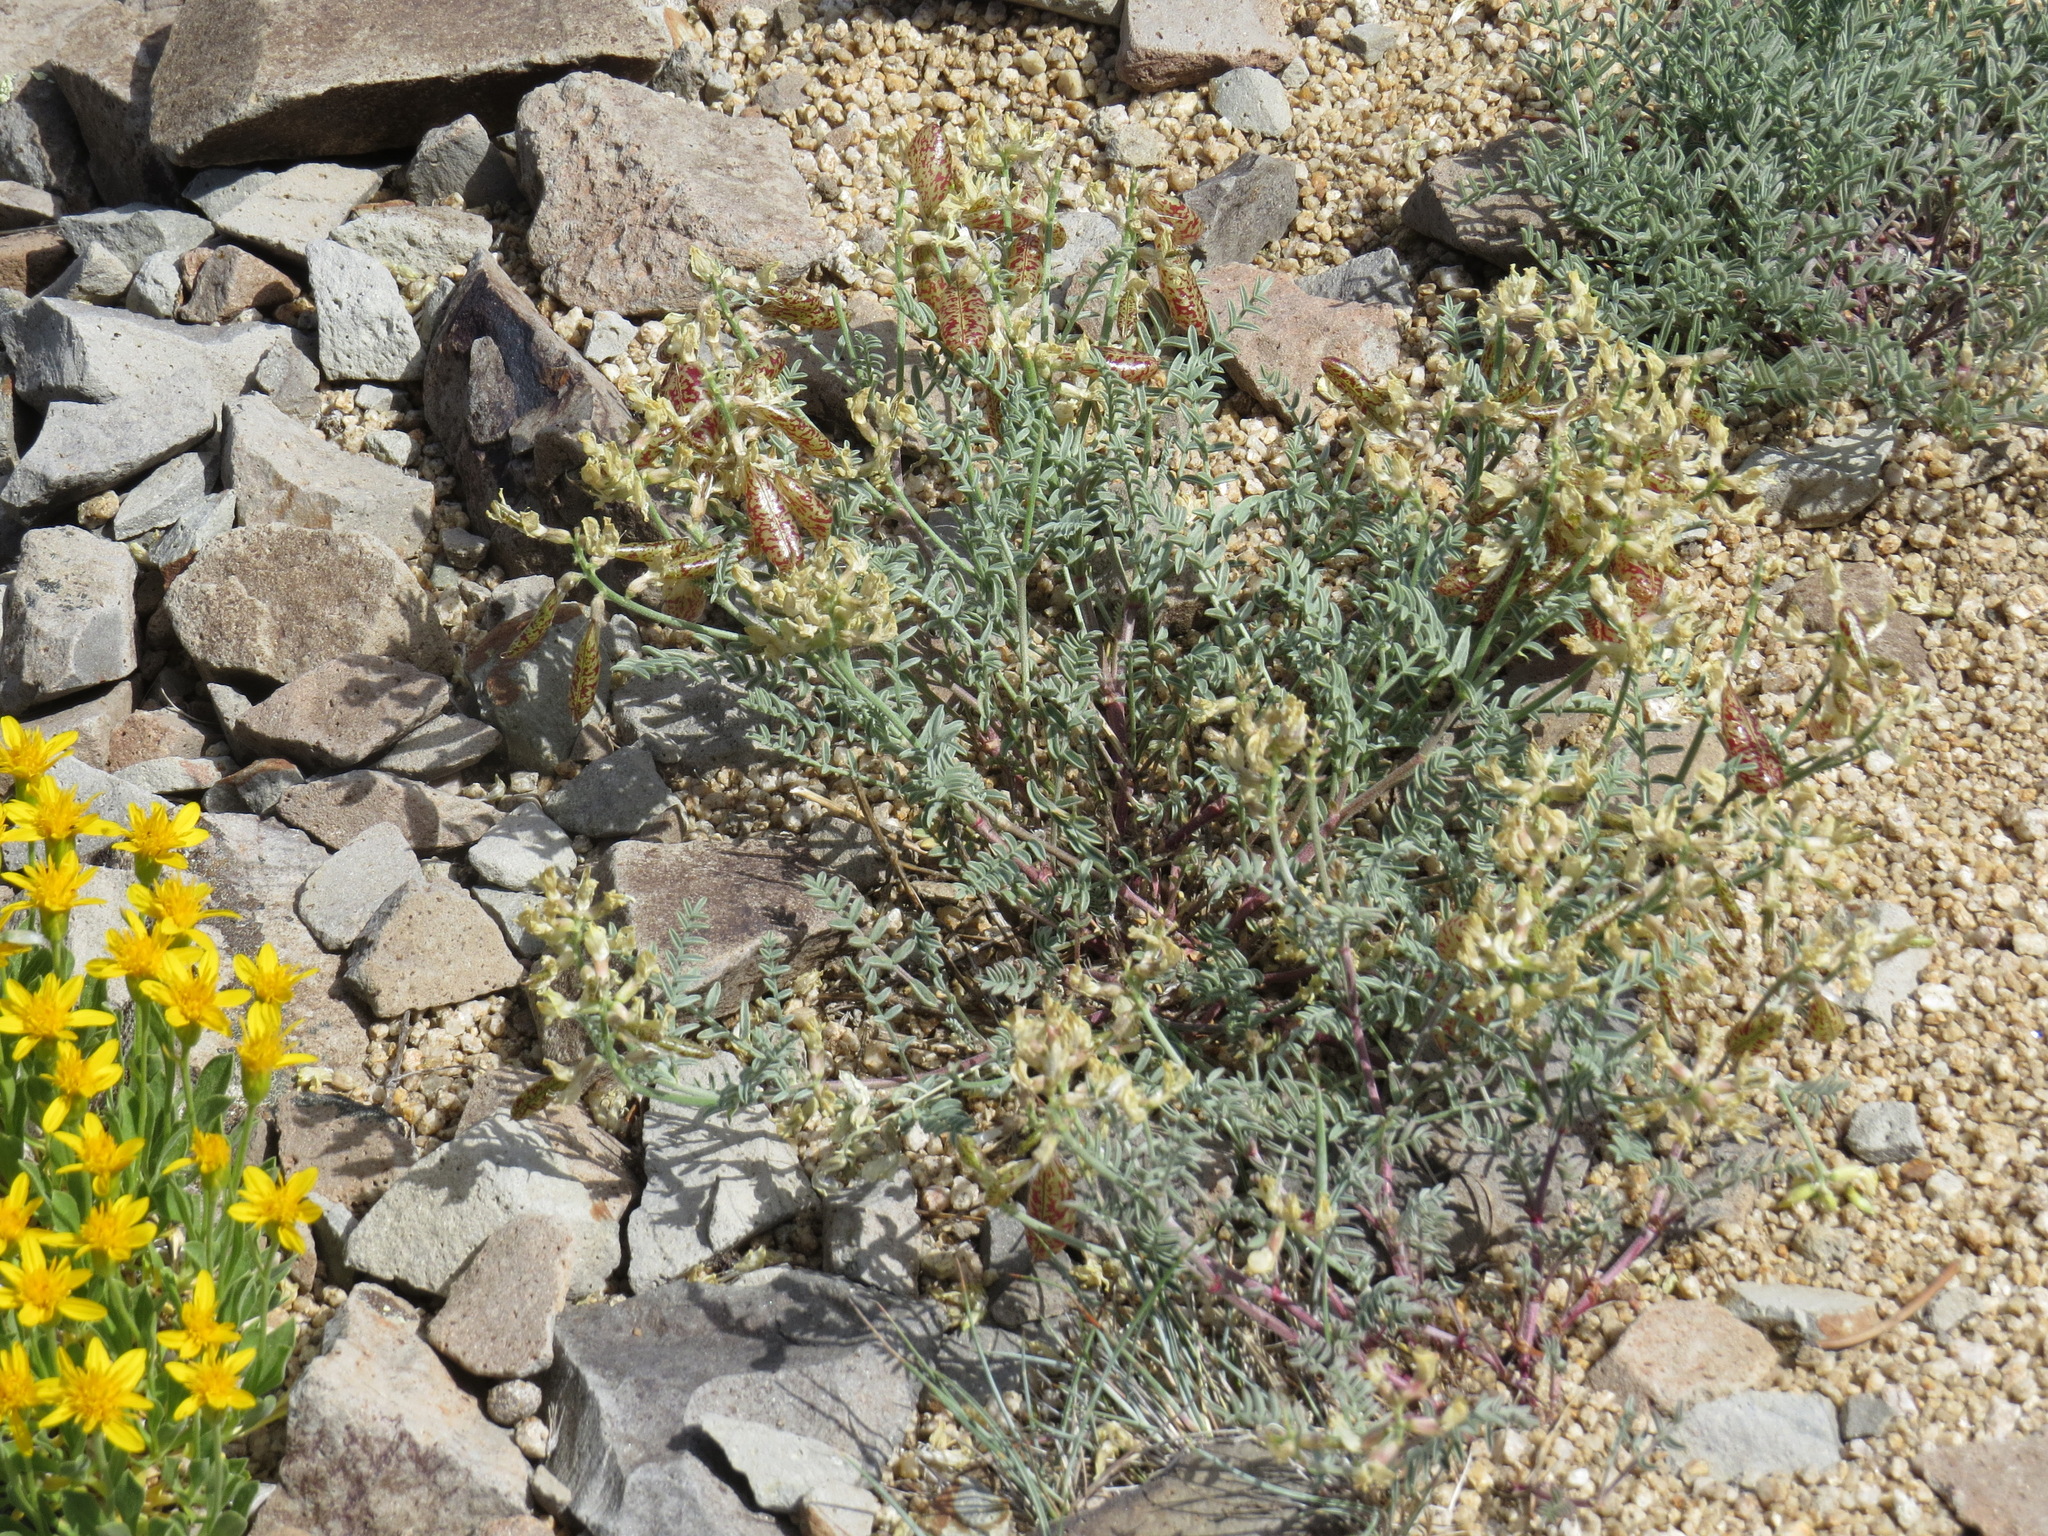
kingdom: Plantae
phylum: Tracheophyta
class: Magnoliopsida
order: Fabales
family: Fabaceae
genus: Astragalus
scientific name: Astragalus whitneyi
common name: Balloonpod milkvetch
